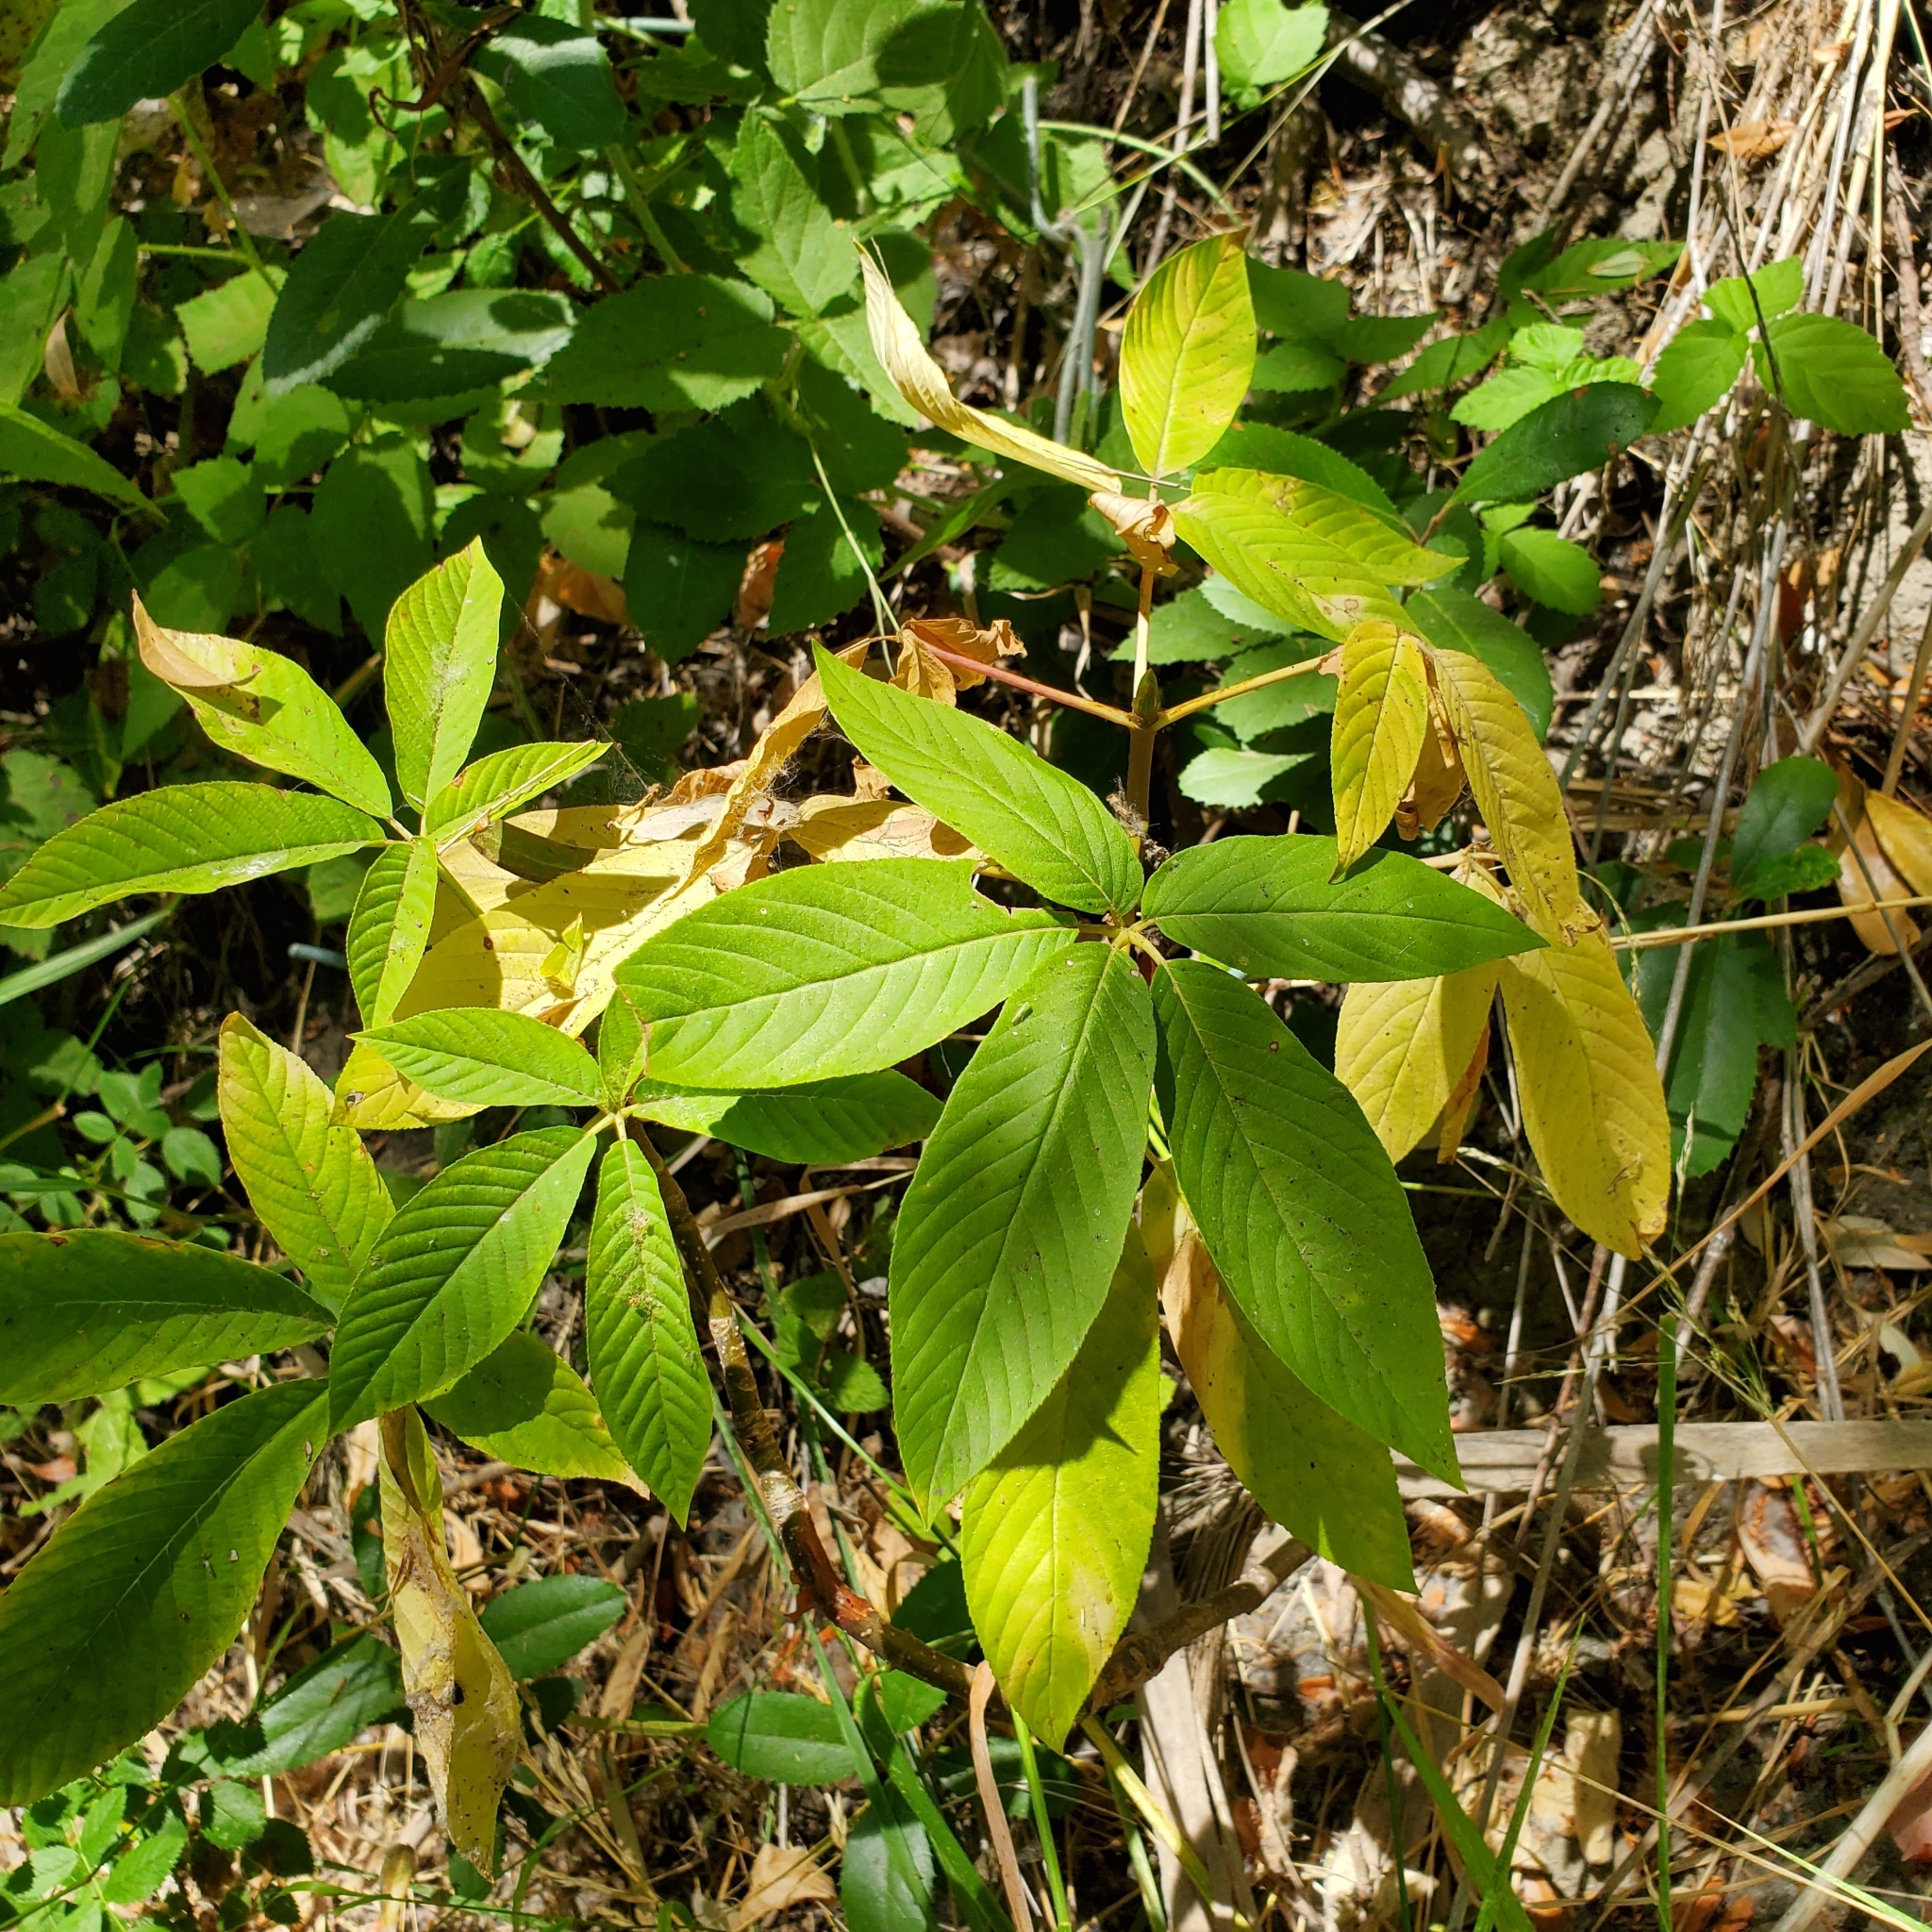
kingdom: Plantae
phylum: Tracheophyta
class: Magnoliopsida
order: Sapindales
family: Sapindaceae
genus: Aesculus
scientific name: Aesculus californica
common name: California buckeye
